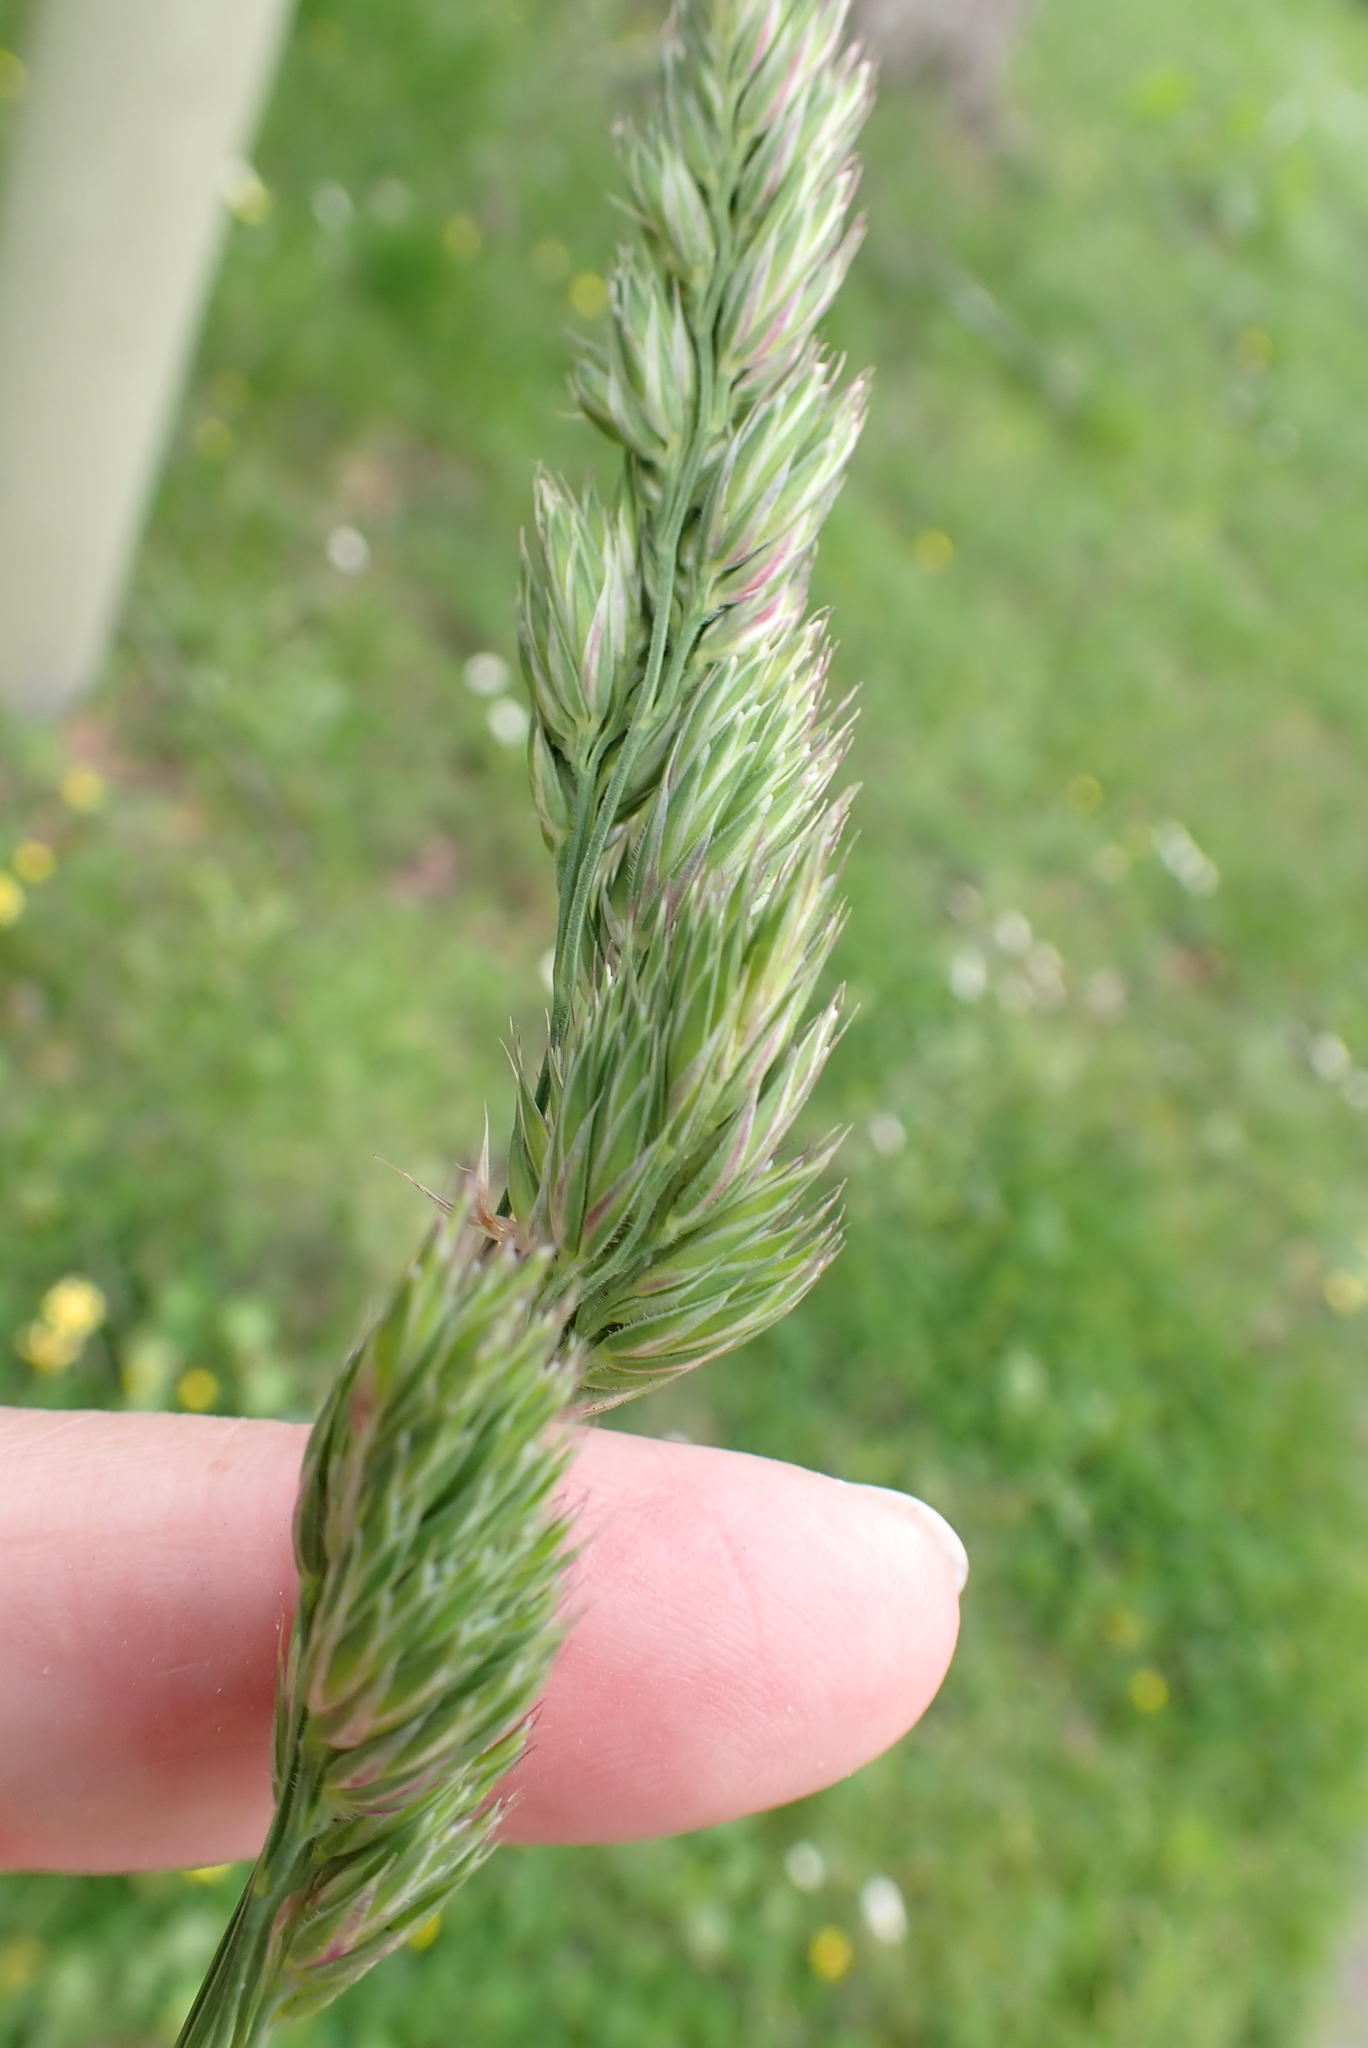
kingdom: Plantae
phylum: Tracheophyta
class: Liliopsida
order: Poales
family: Poaceae
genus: Dactylis
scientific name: Dactylis glomerata
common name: Orchardgrass
